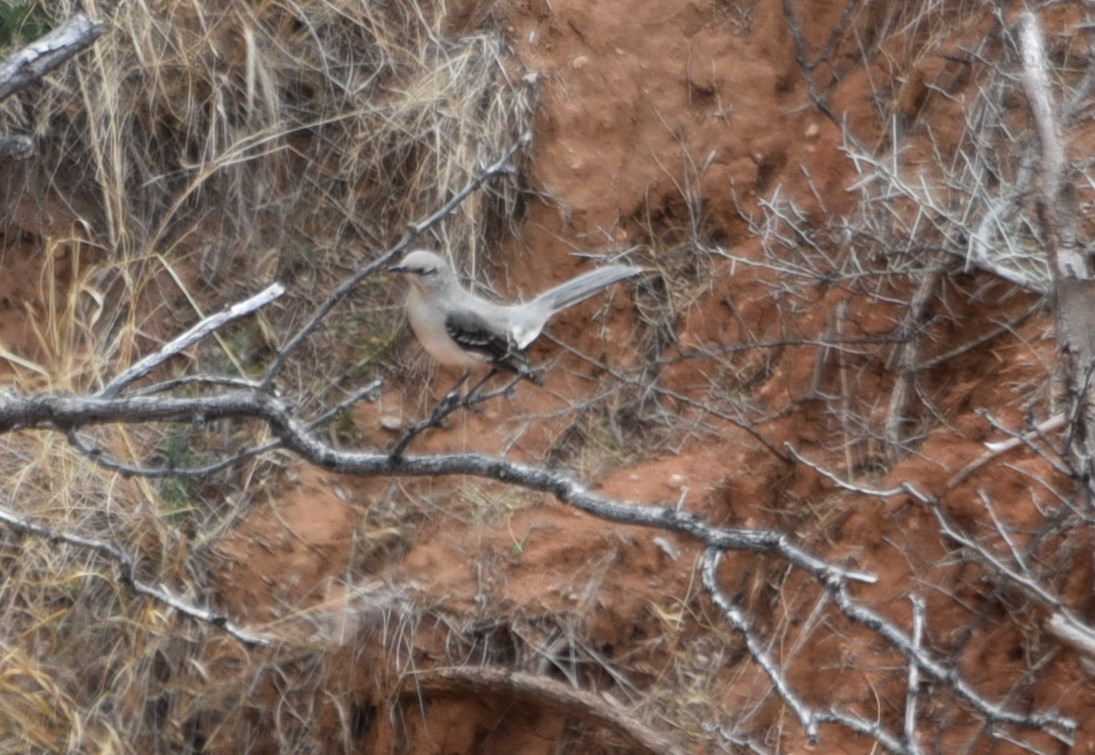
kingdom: Animalia
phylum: Chordata
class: Aves
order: Passeriformes
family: Mimidae
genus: Mimus
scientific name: Mimus polyglottos
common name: Northern mockingbird
